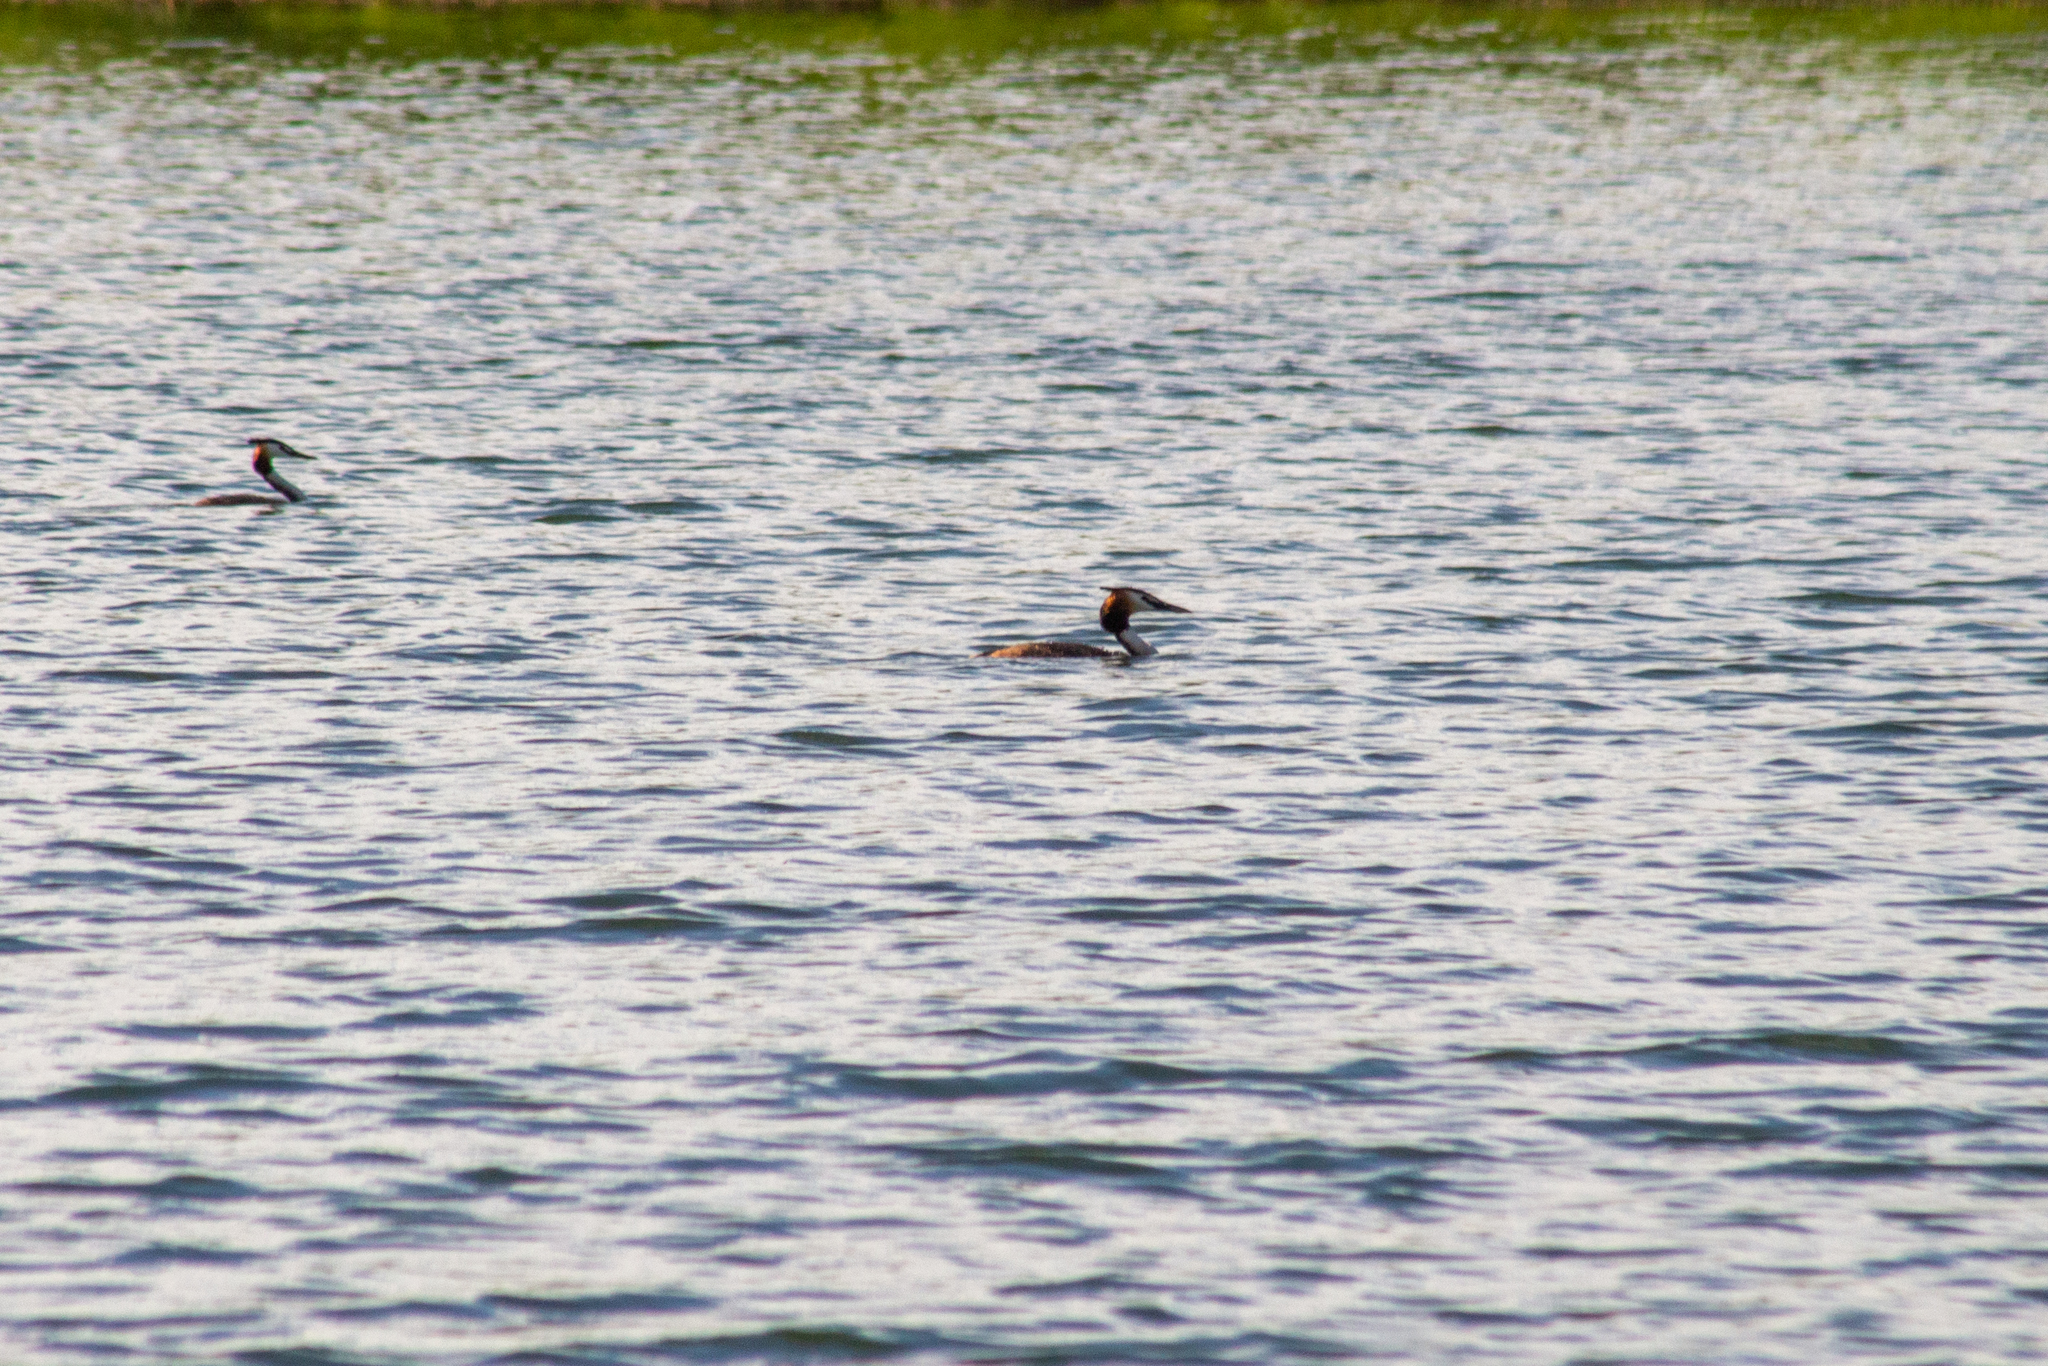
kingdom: Animalia
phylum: Chordata
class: Aves
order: Podicipediformes
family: Podicipedidae
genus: Podiceps
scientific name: Podiceps cristatus
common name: Great crested grebe
